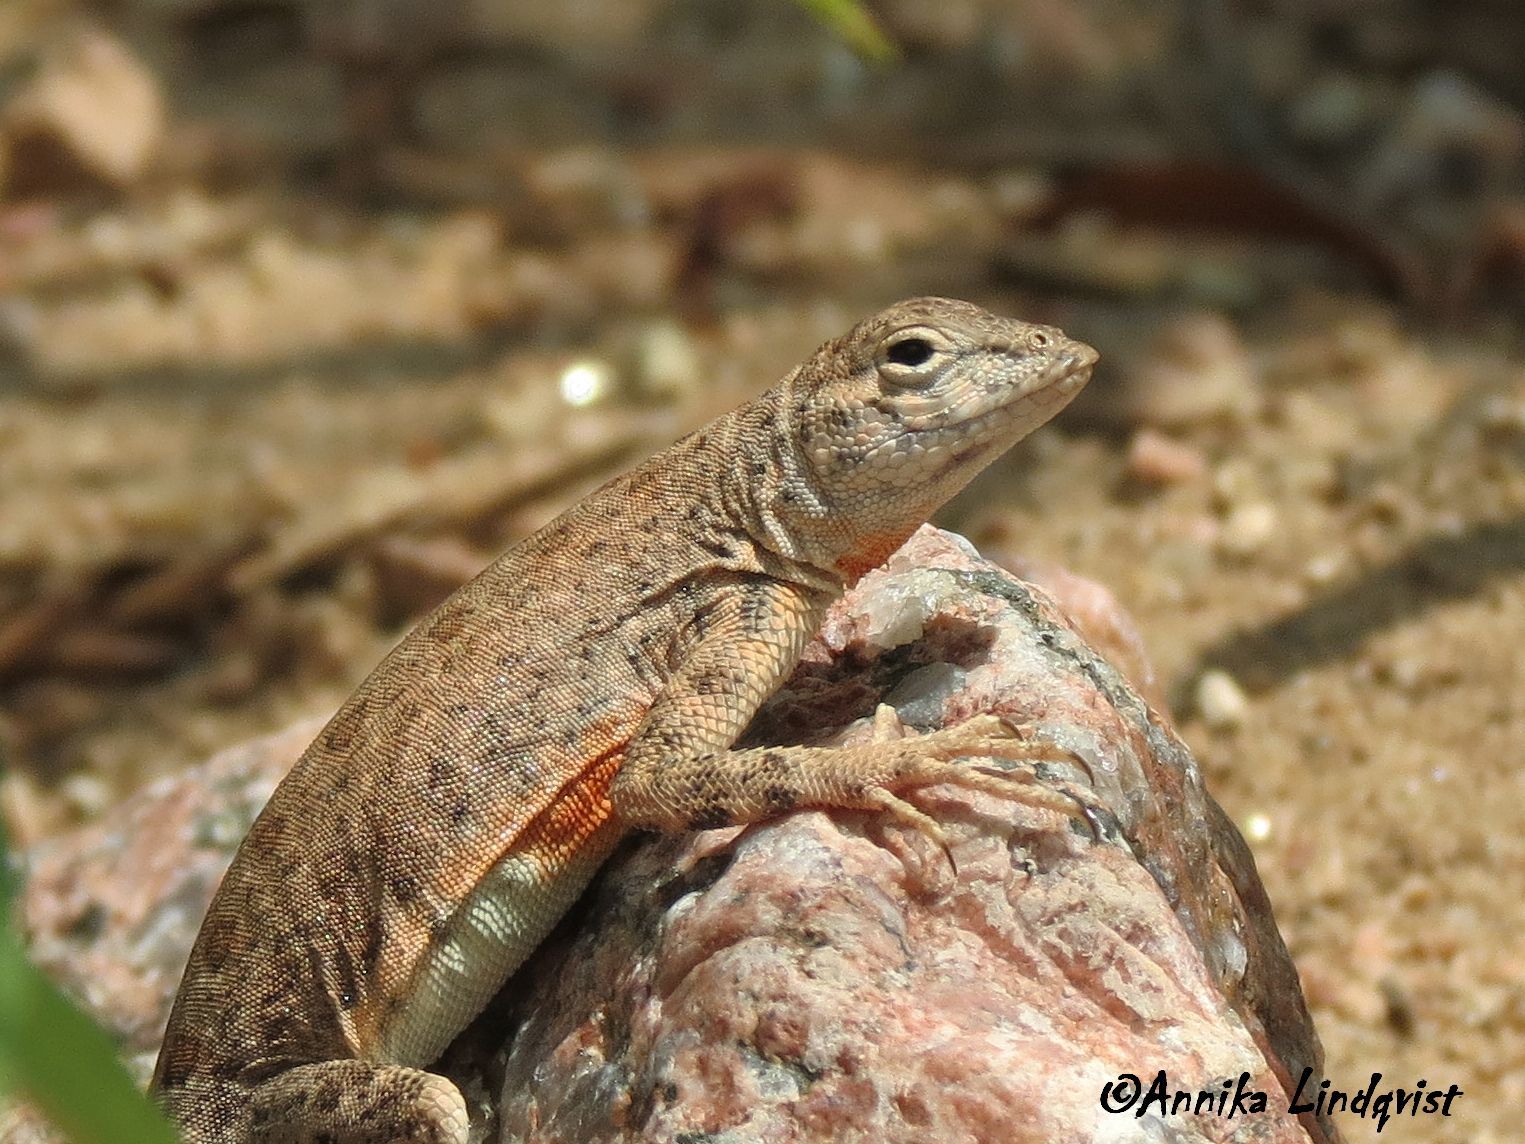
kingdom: Animalia
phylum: Chordata
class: Squamata
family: Phrynosomatidae
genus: Cophosaurus
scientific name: Cophosaurus texanus
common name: Greater earless lizard
